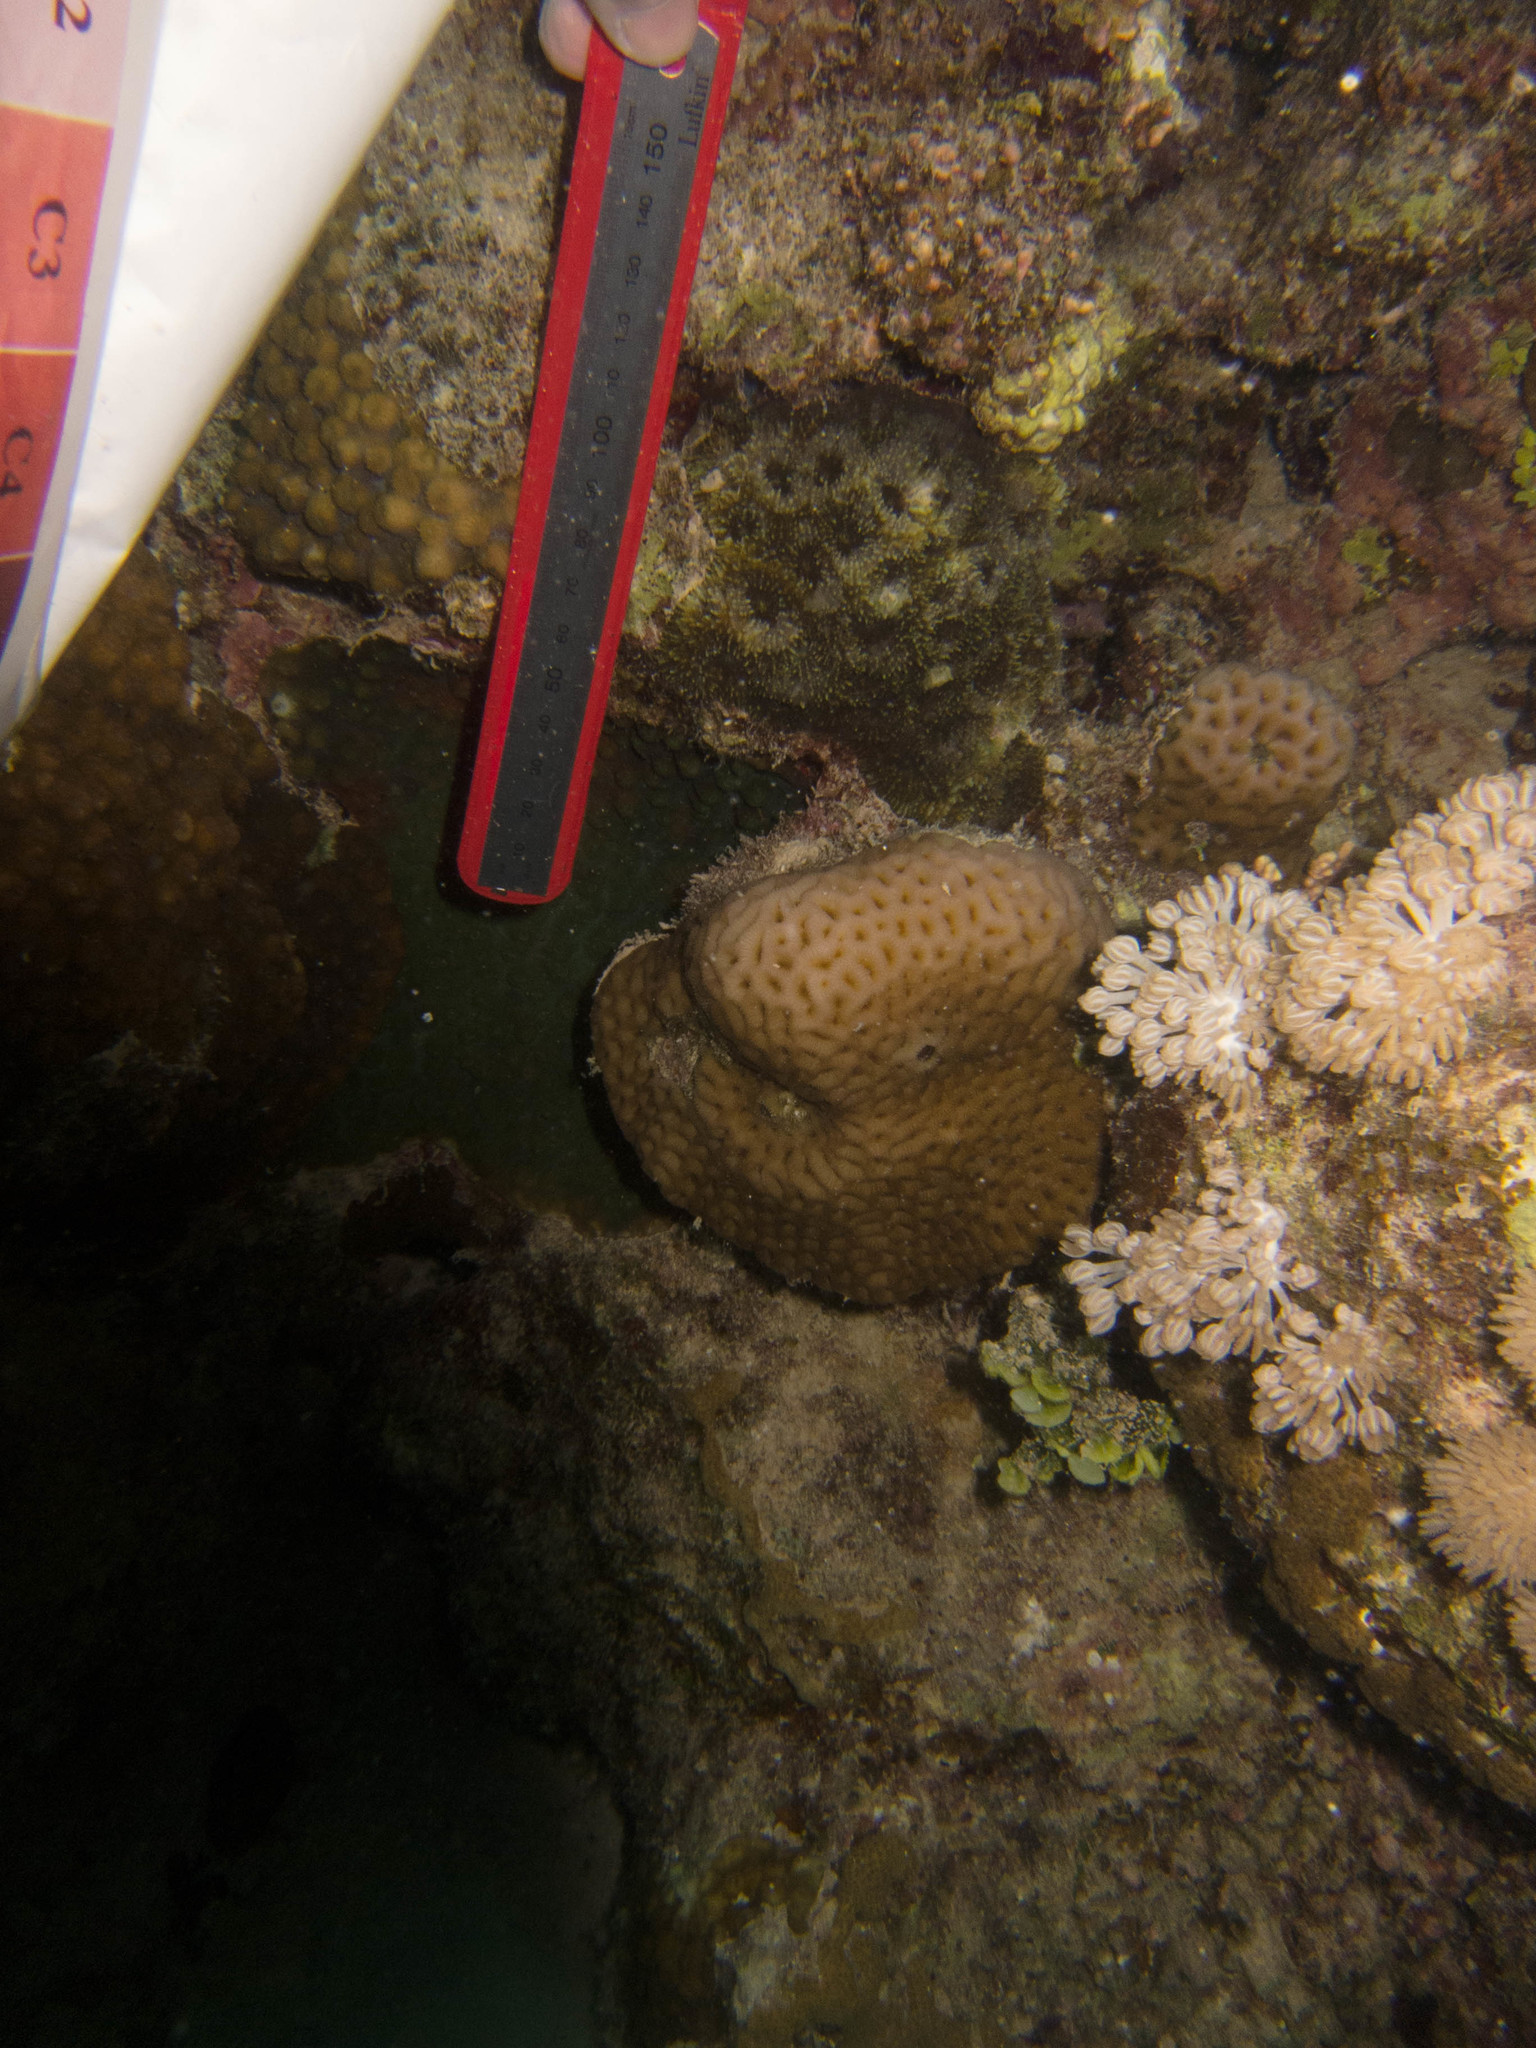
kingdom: Animalia
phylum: Cnidaria
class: Anthozoa
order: Scleractinia
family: Lobophylliidae
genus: Acanthastrea
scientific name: Acanthastrea echinata
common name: Starry cup coral
